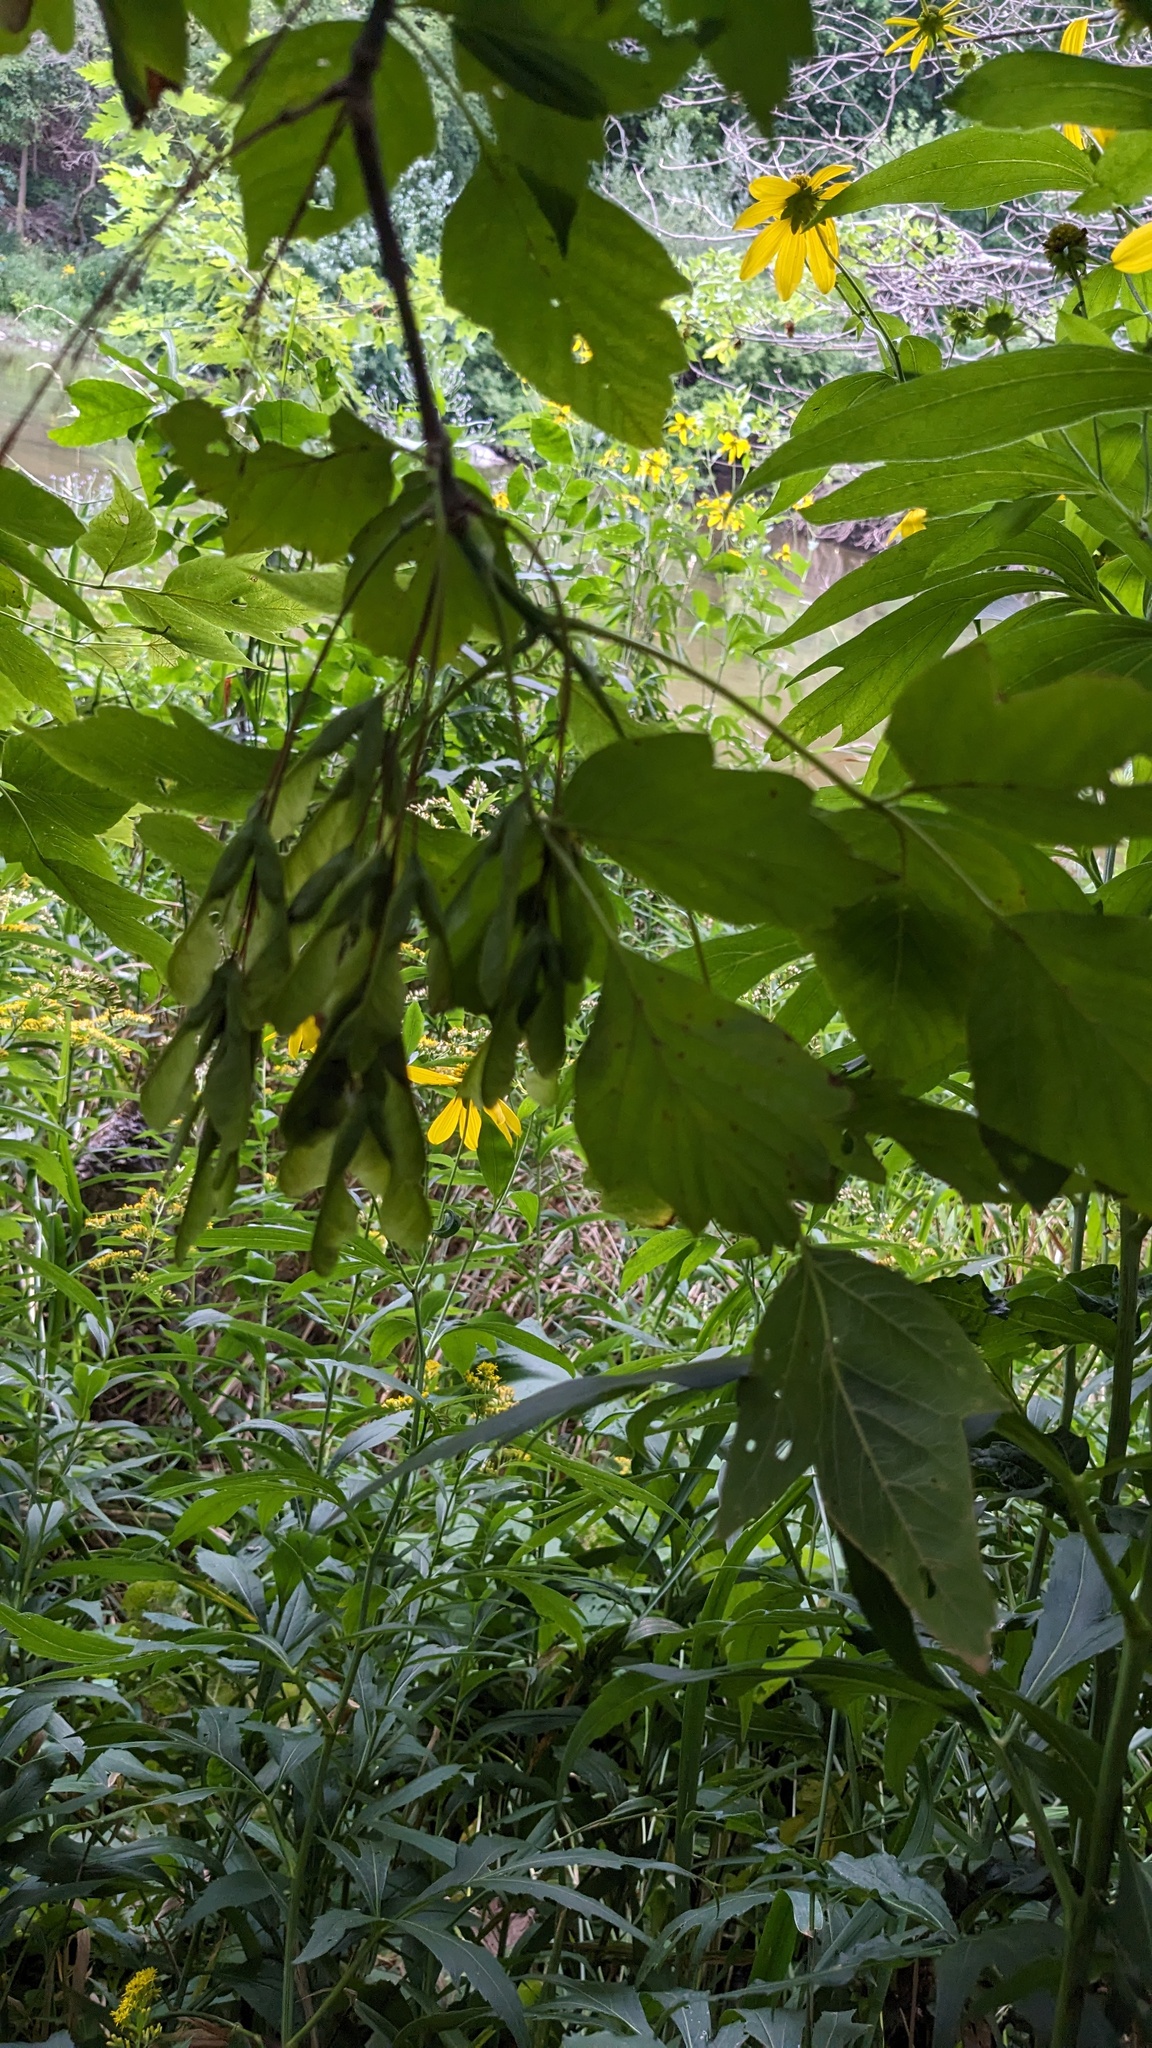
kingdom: Plantae
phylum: Tracheophyta
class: Magnoliopsida
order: Sapindales
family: Sapindaceae
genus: Acer
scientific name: Acer negundo
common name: Ashleaf maple
